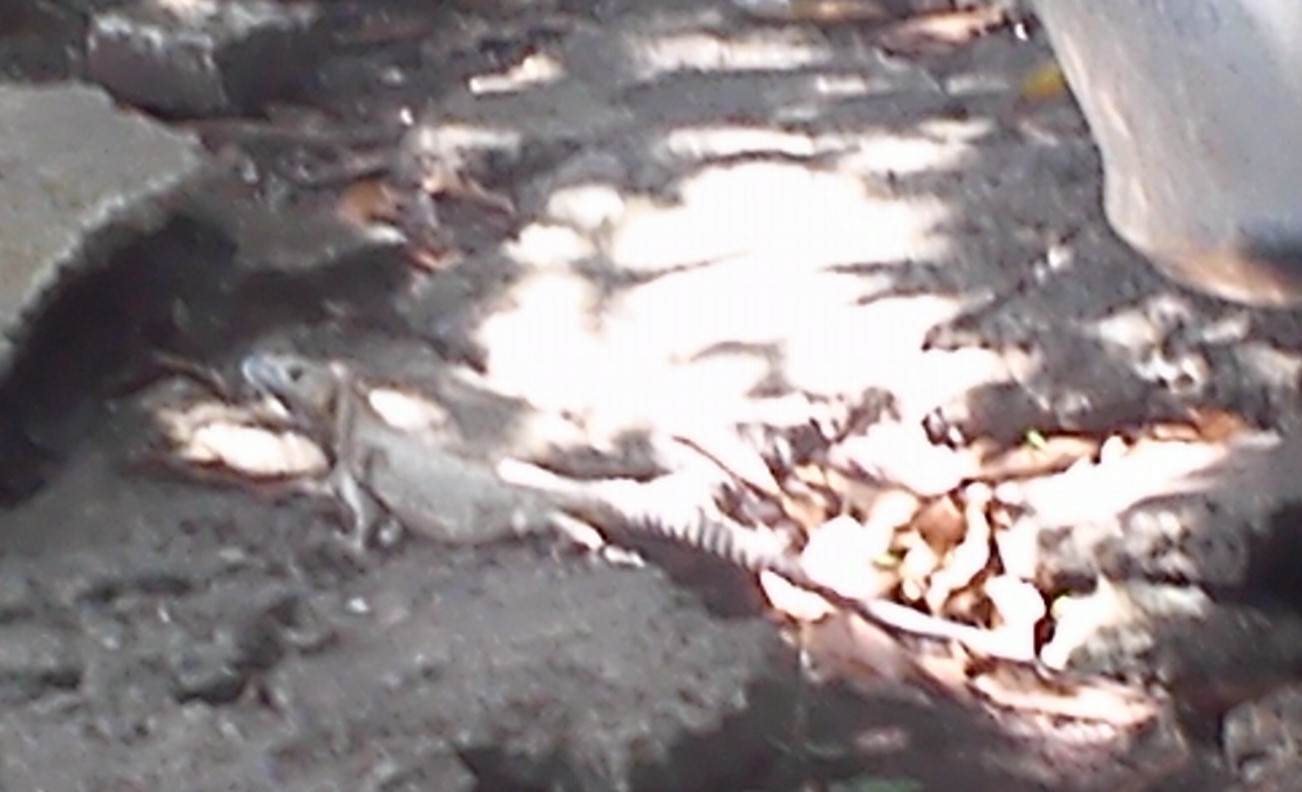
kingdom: Animalia
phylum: Chordata
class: Squamata
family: Iguanidae
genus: Ctenosaura
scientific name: Ctenosaura acanthura
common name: Northeastern spinytail iguana
